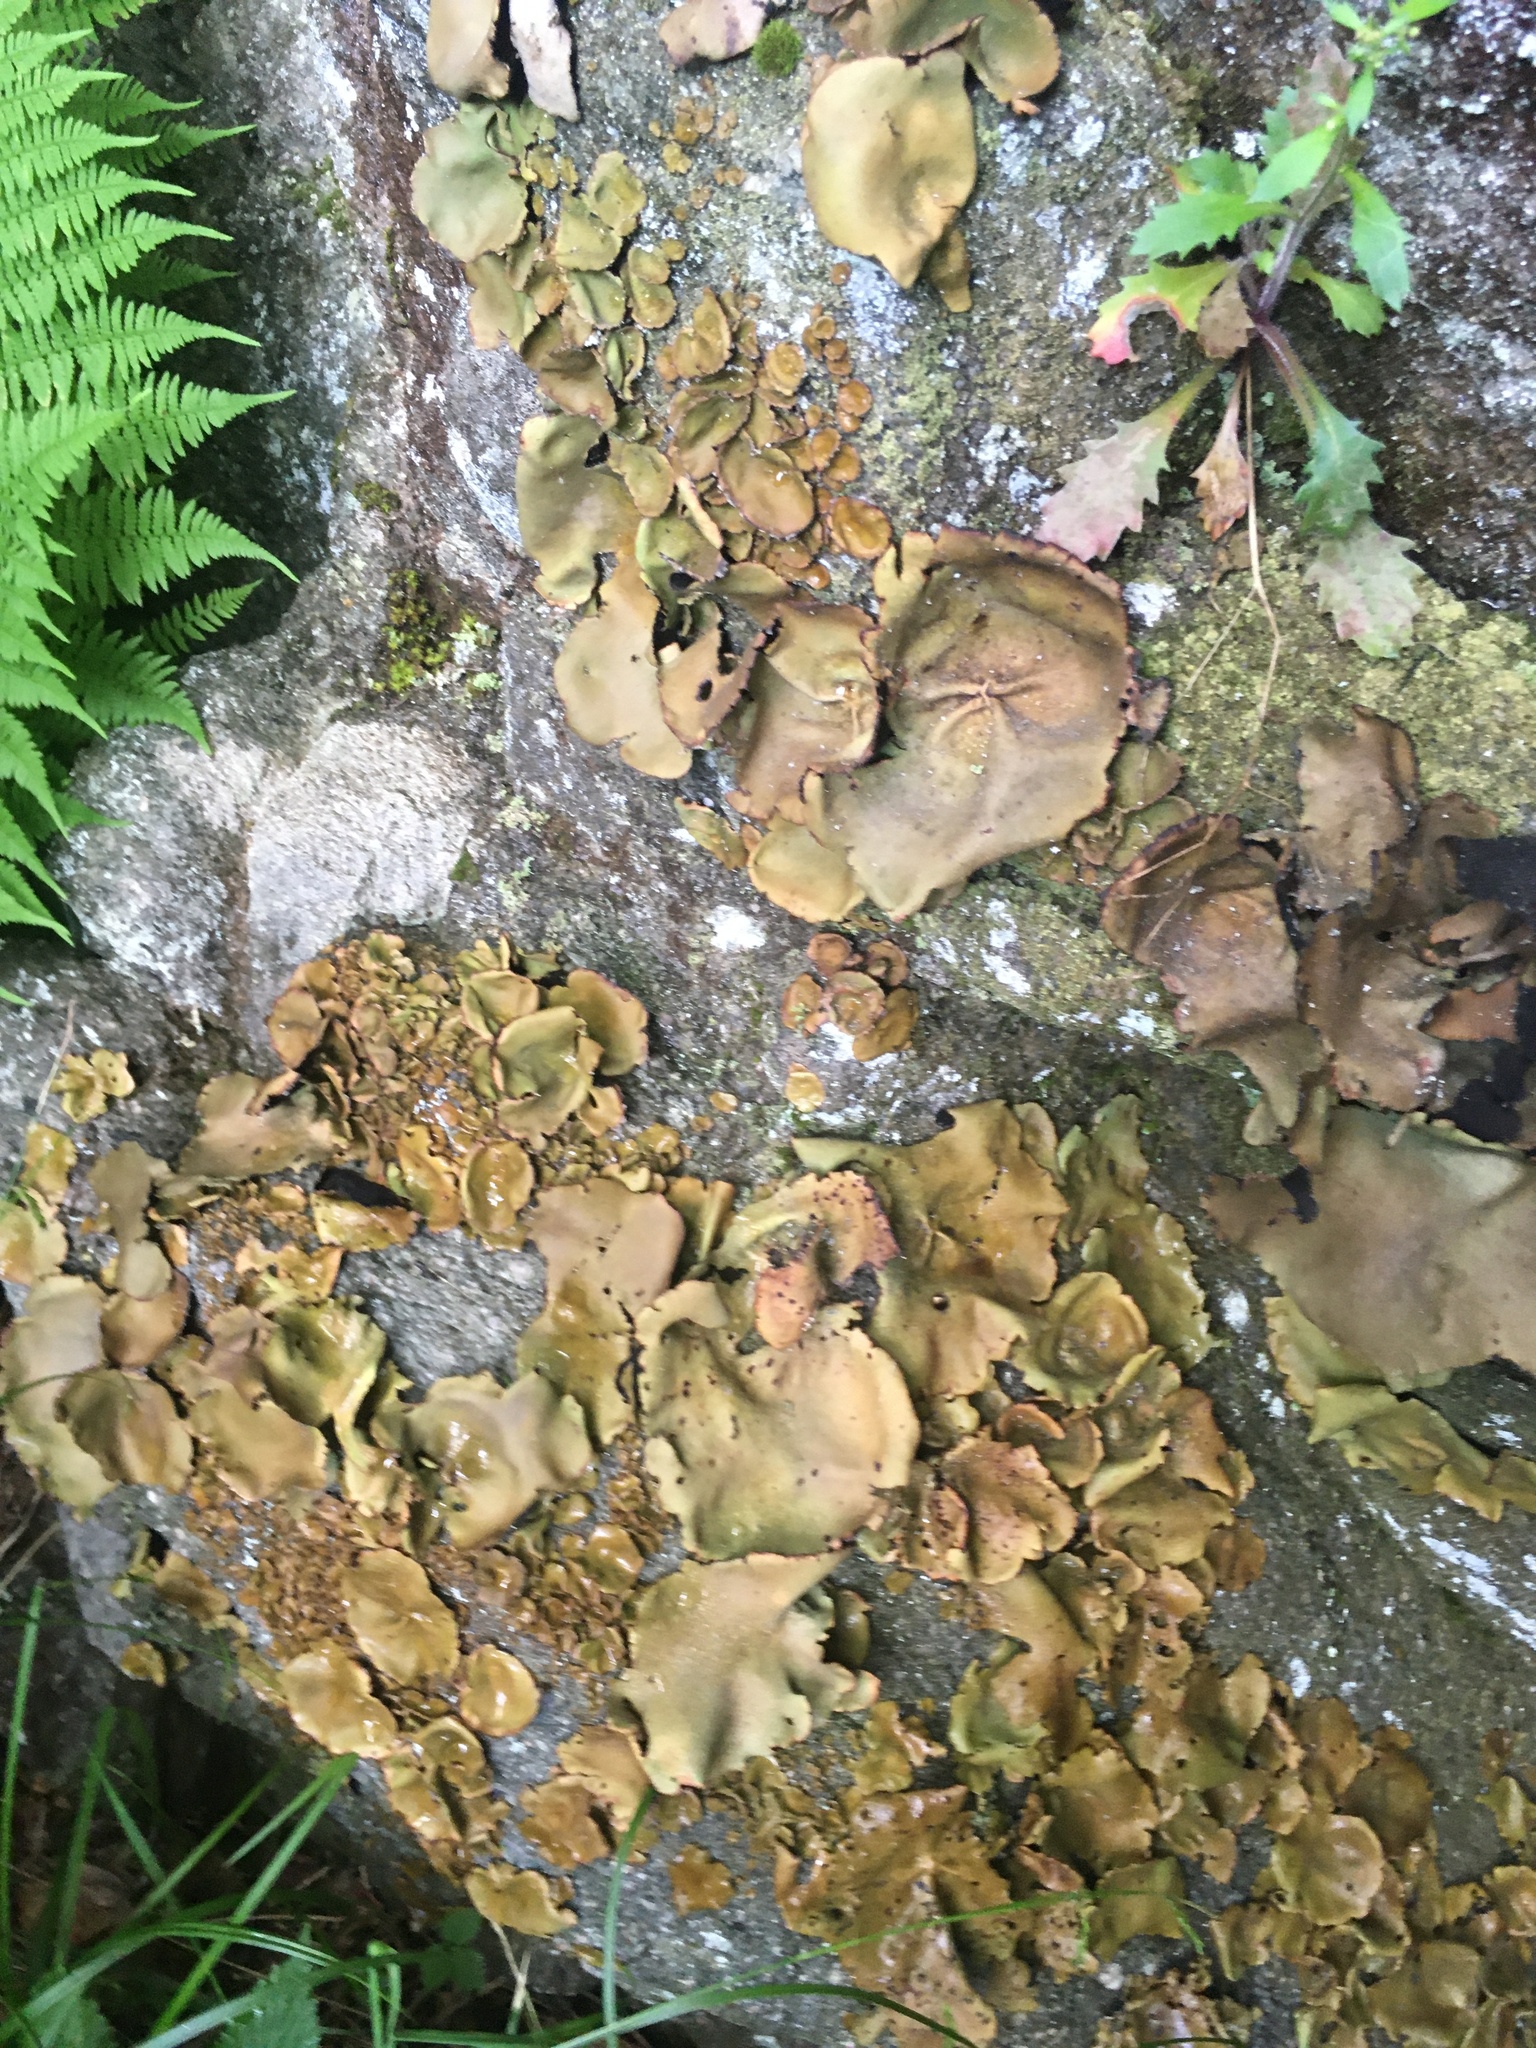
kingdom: Fungi
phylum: Ascomycota
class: Lecanoromycetes
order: Umbilicariales
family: Umbilicariaceae
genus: Umbilicaria
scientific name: Umbilicaria mammulata
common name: Smooth rock tripe
